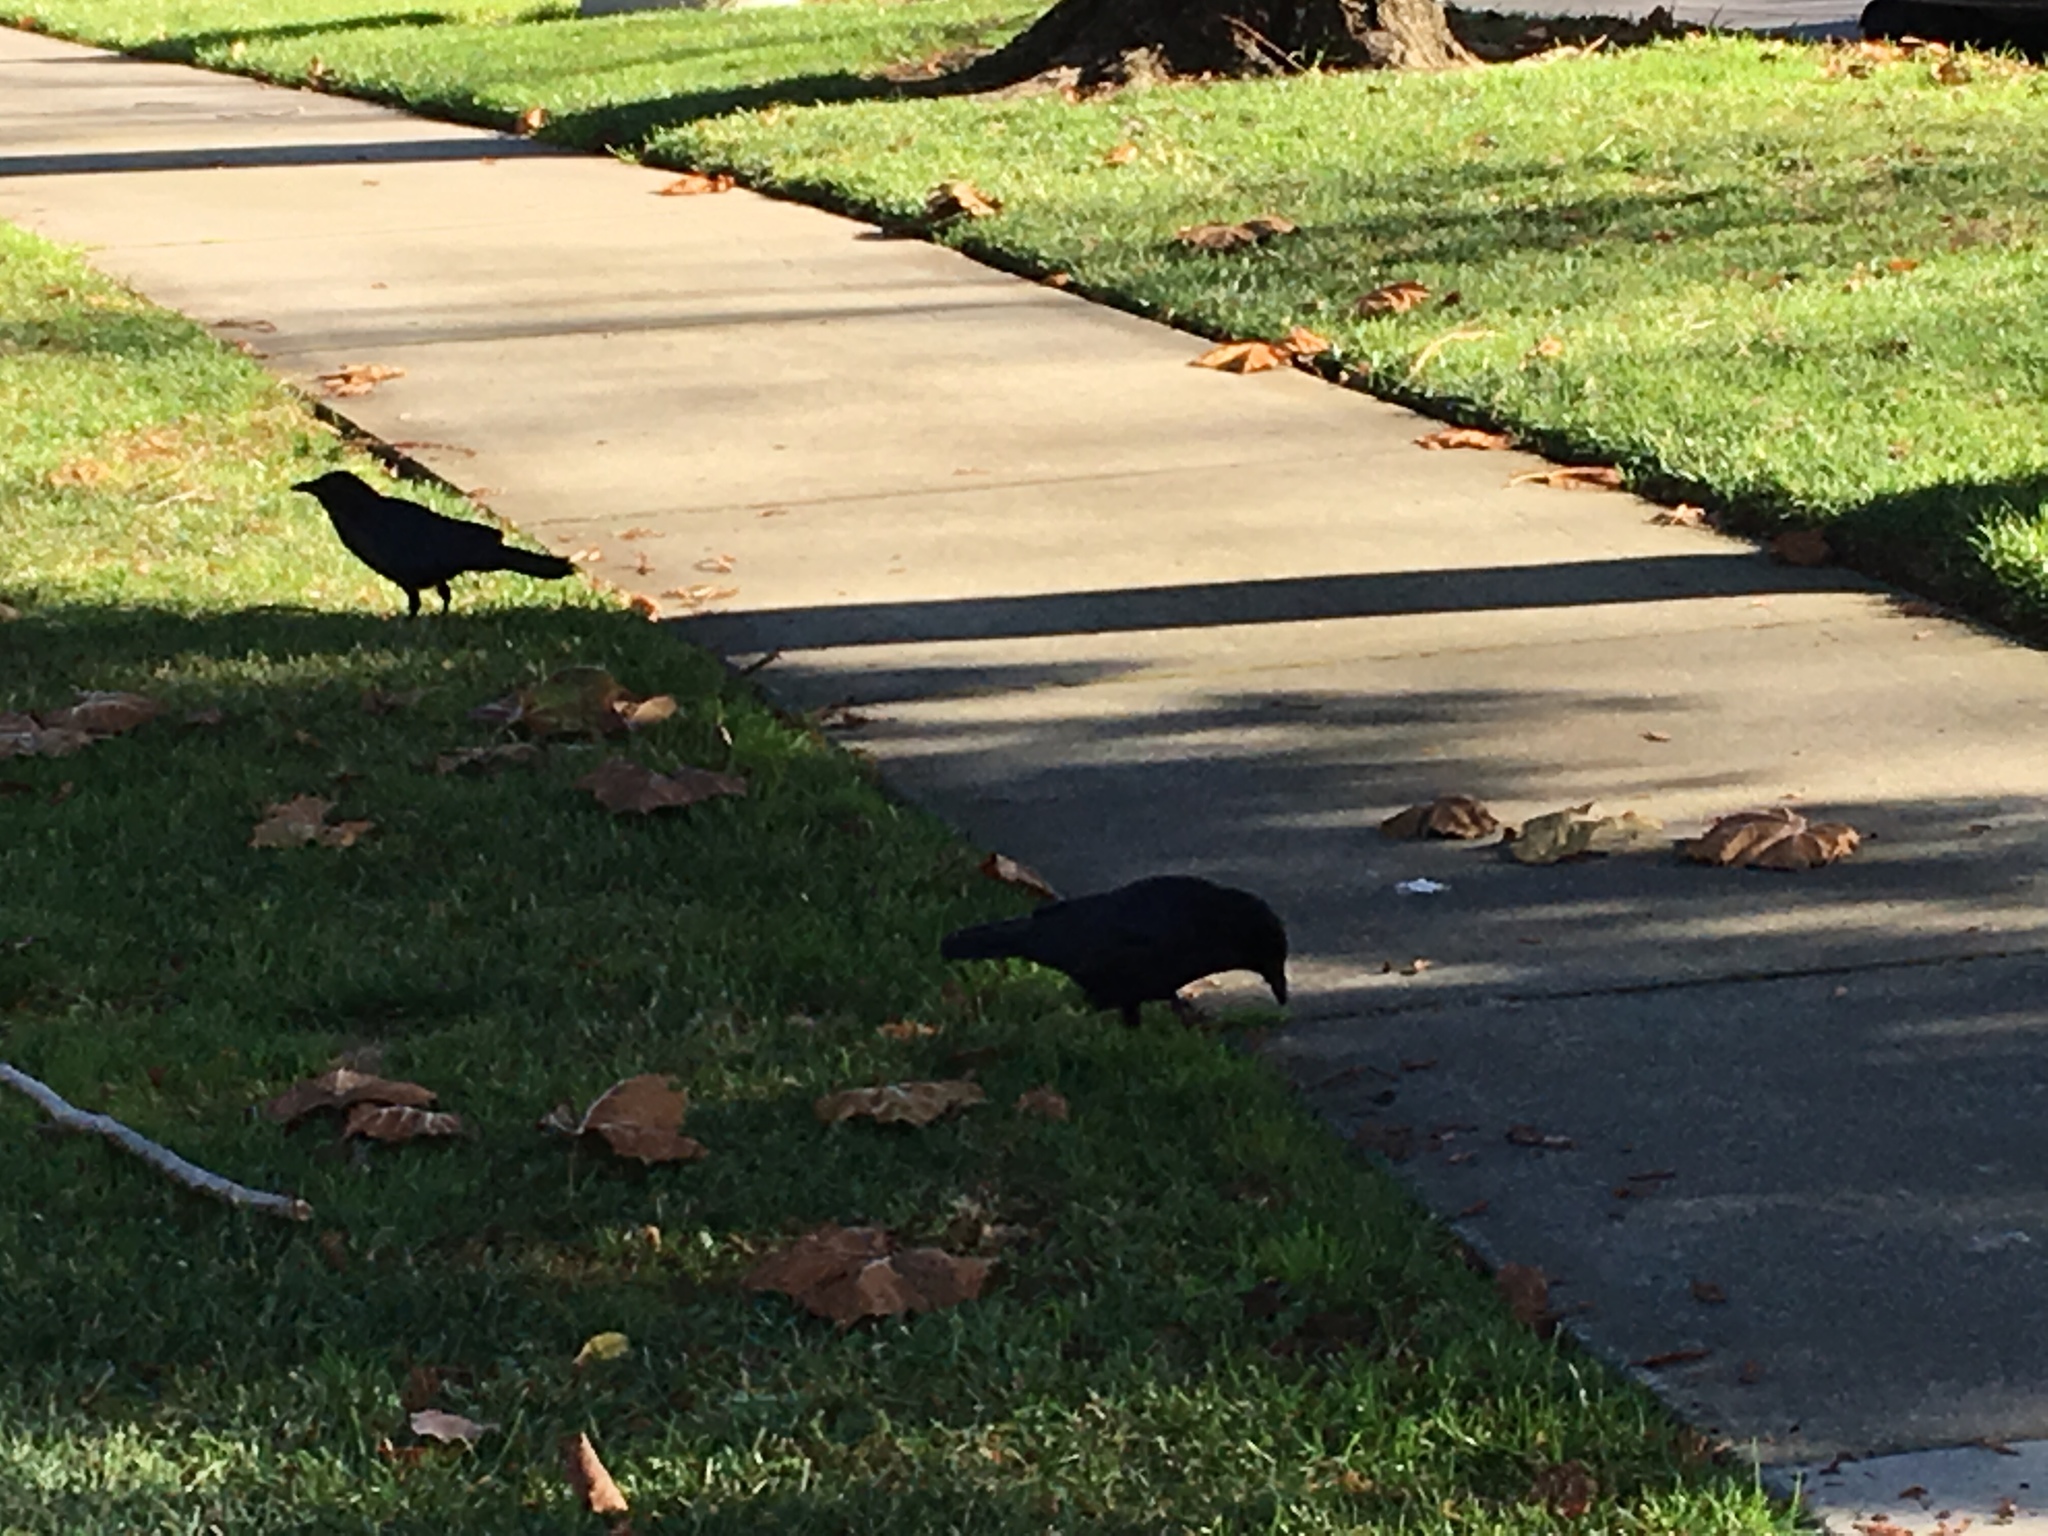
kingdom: Animalia
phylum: Chordata
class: Aves
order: Passeriformes
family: Corvidae
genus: Corvus
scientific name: Corvus brachyrhynchos
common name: American crow
